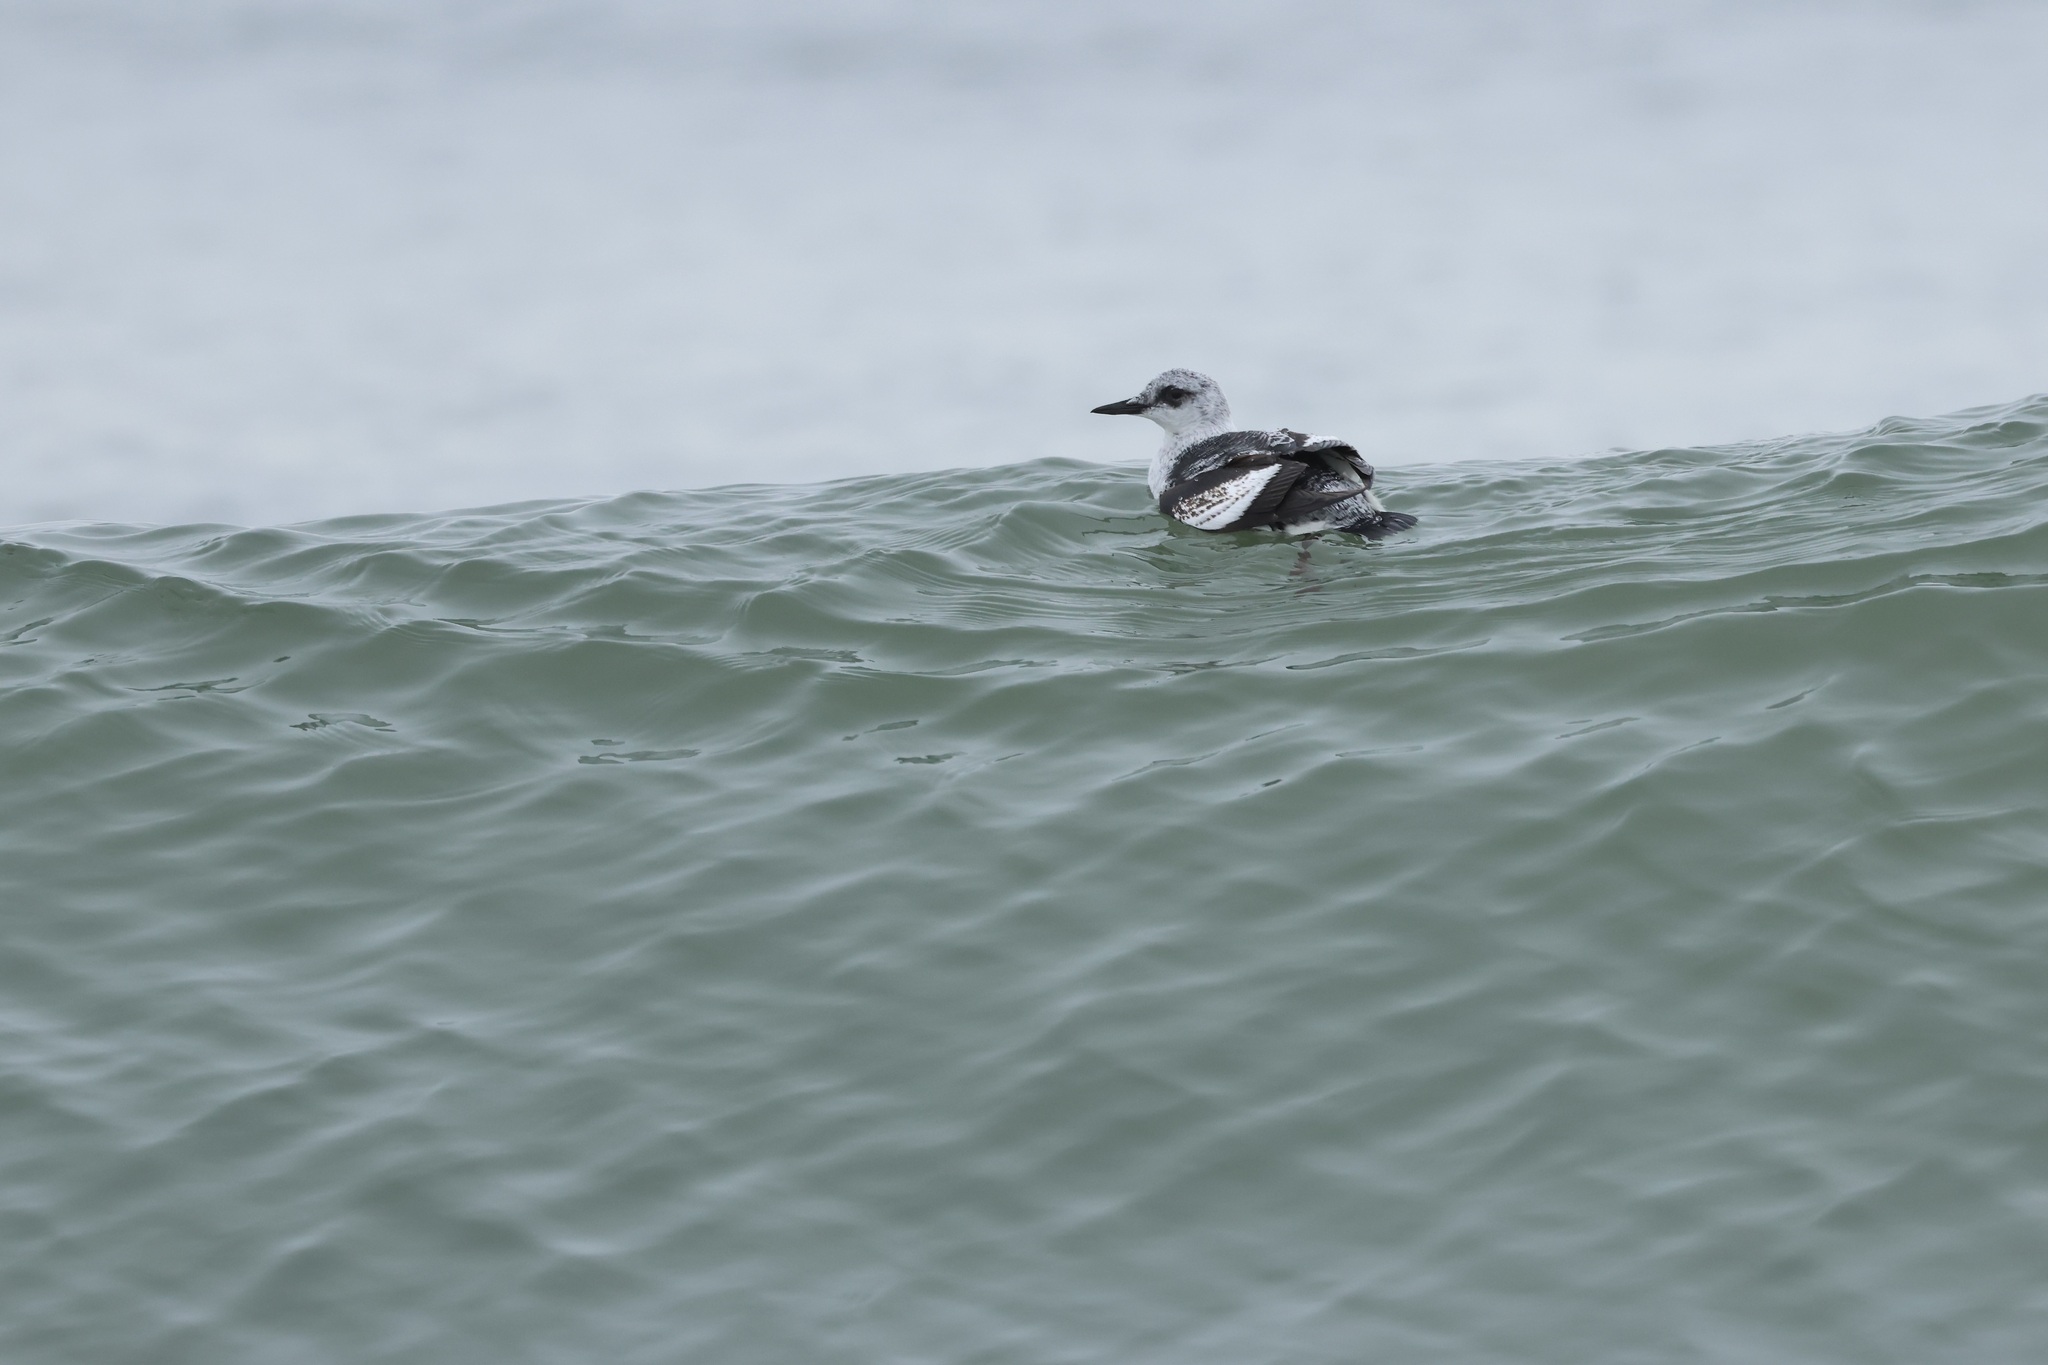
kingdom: Animalia
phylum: Chordata
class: Aves
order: Charadriiformes
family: Alcidae
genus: Cepphus
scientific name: Cepphus grylle
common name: Black guillemot
